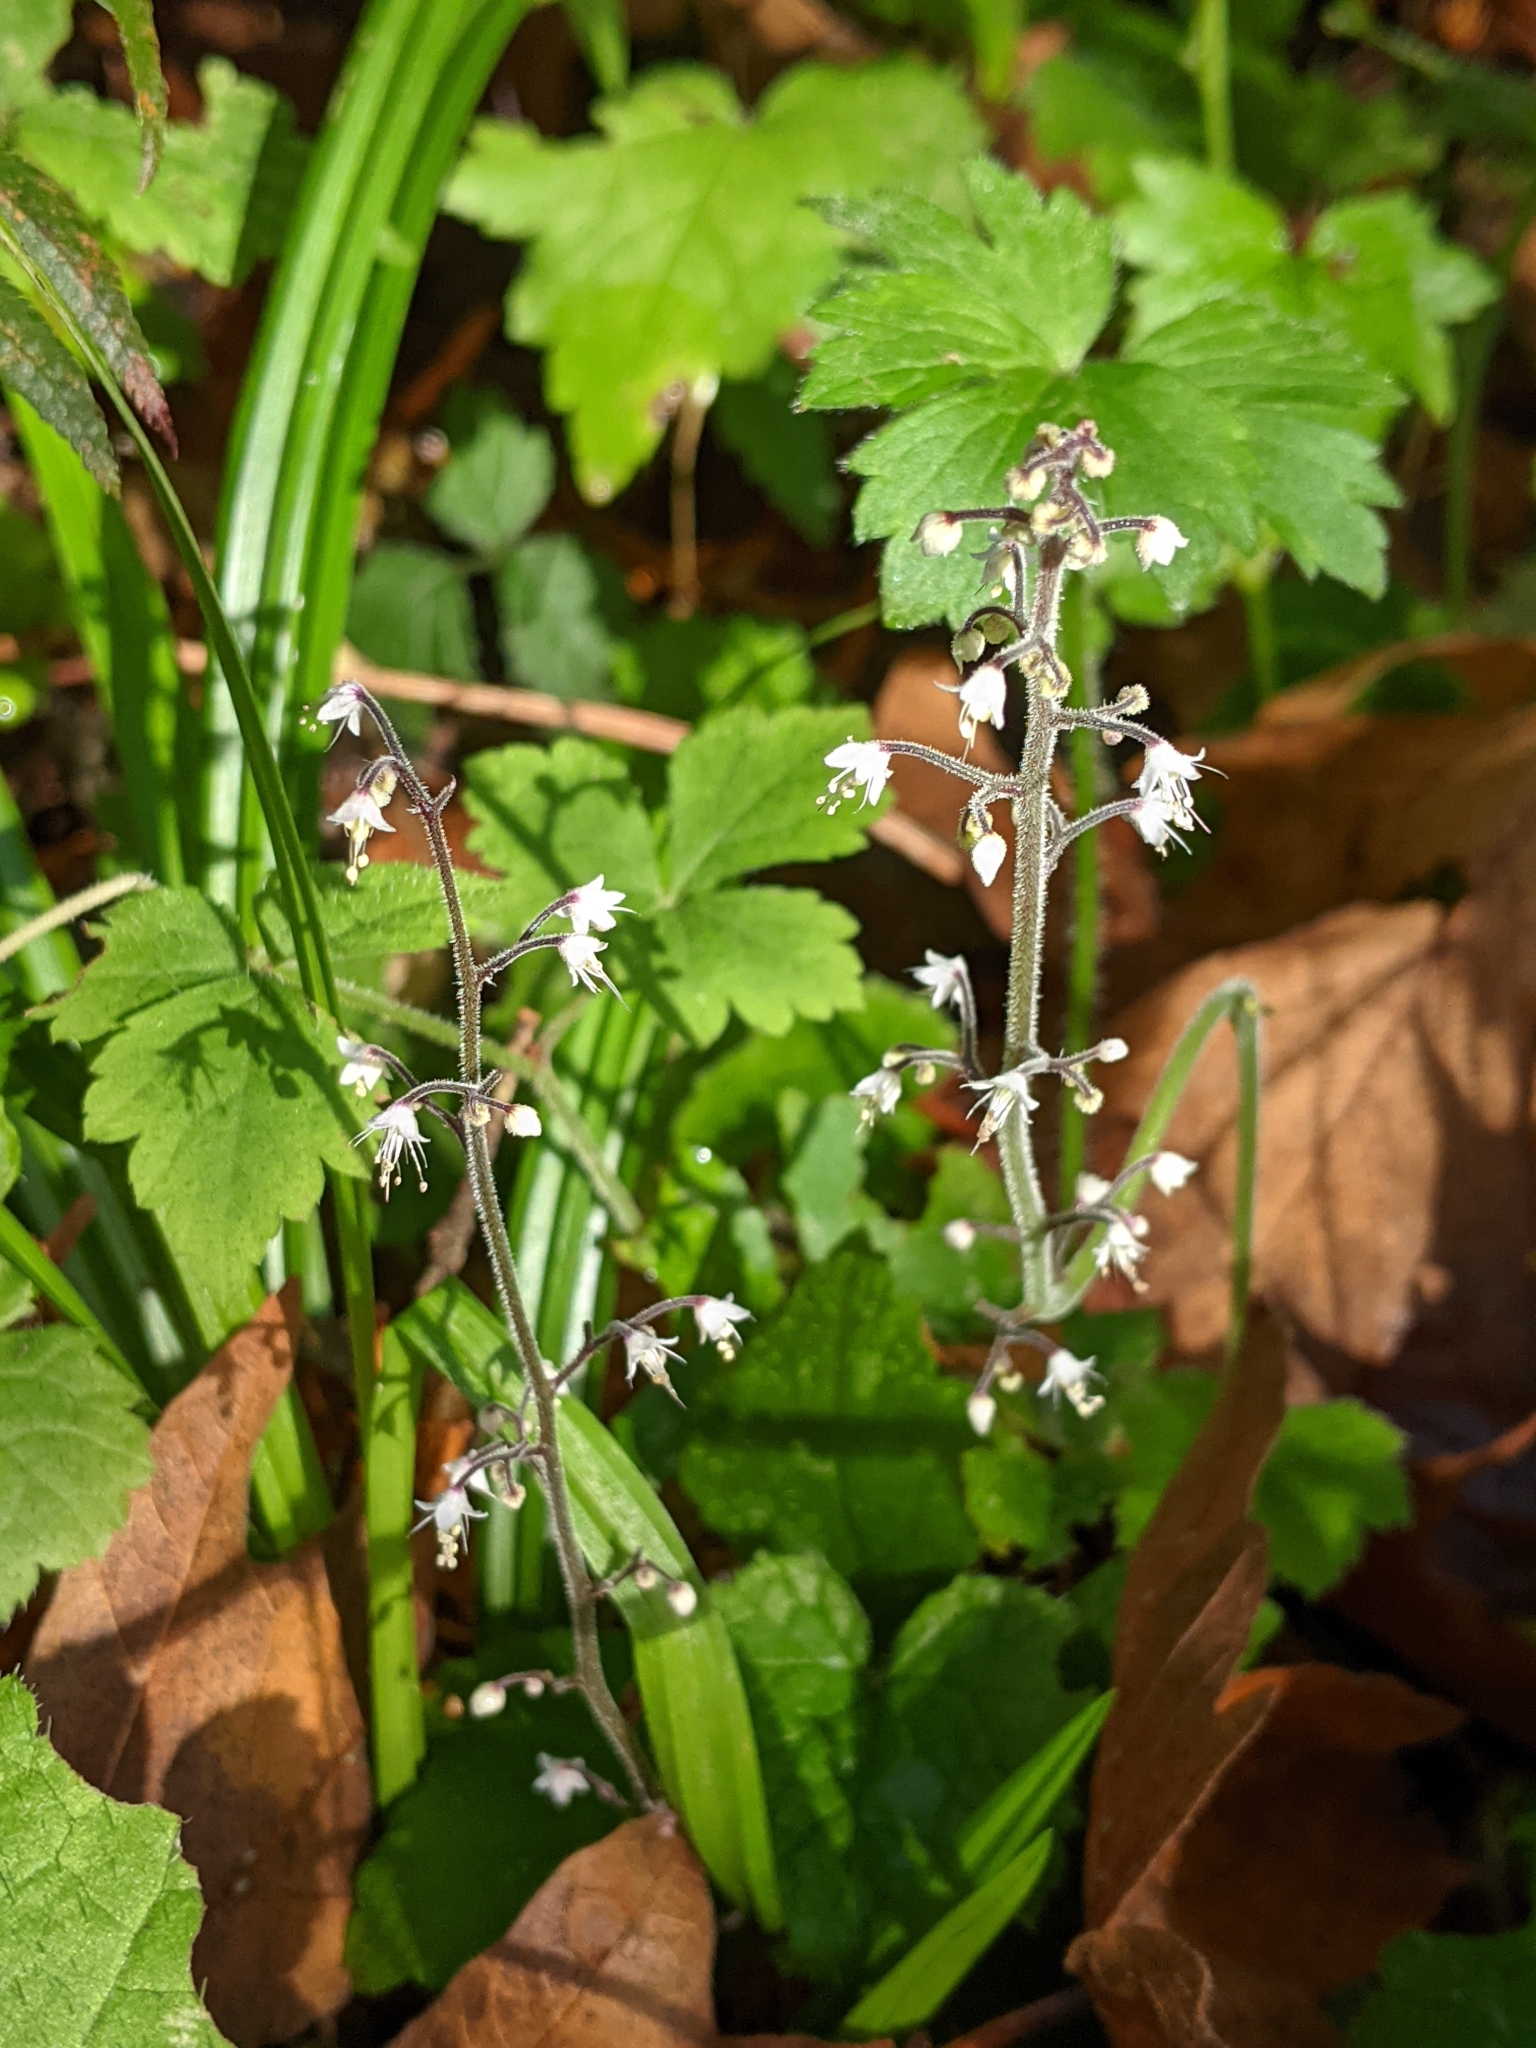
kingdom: Plantae
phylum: Tracheophyta
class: Magnoliopsida
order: Saxifragales
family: Saxifragaceae
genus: Tiarella
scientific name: Tiarella trifoliata
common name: Sugar-scoop
